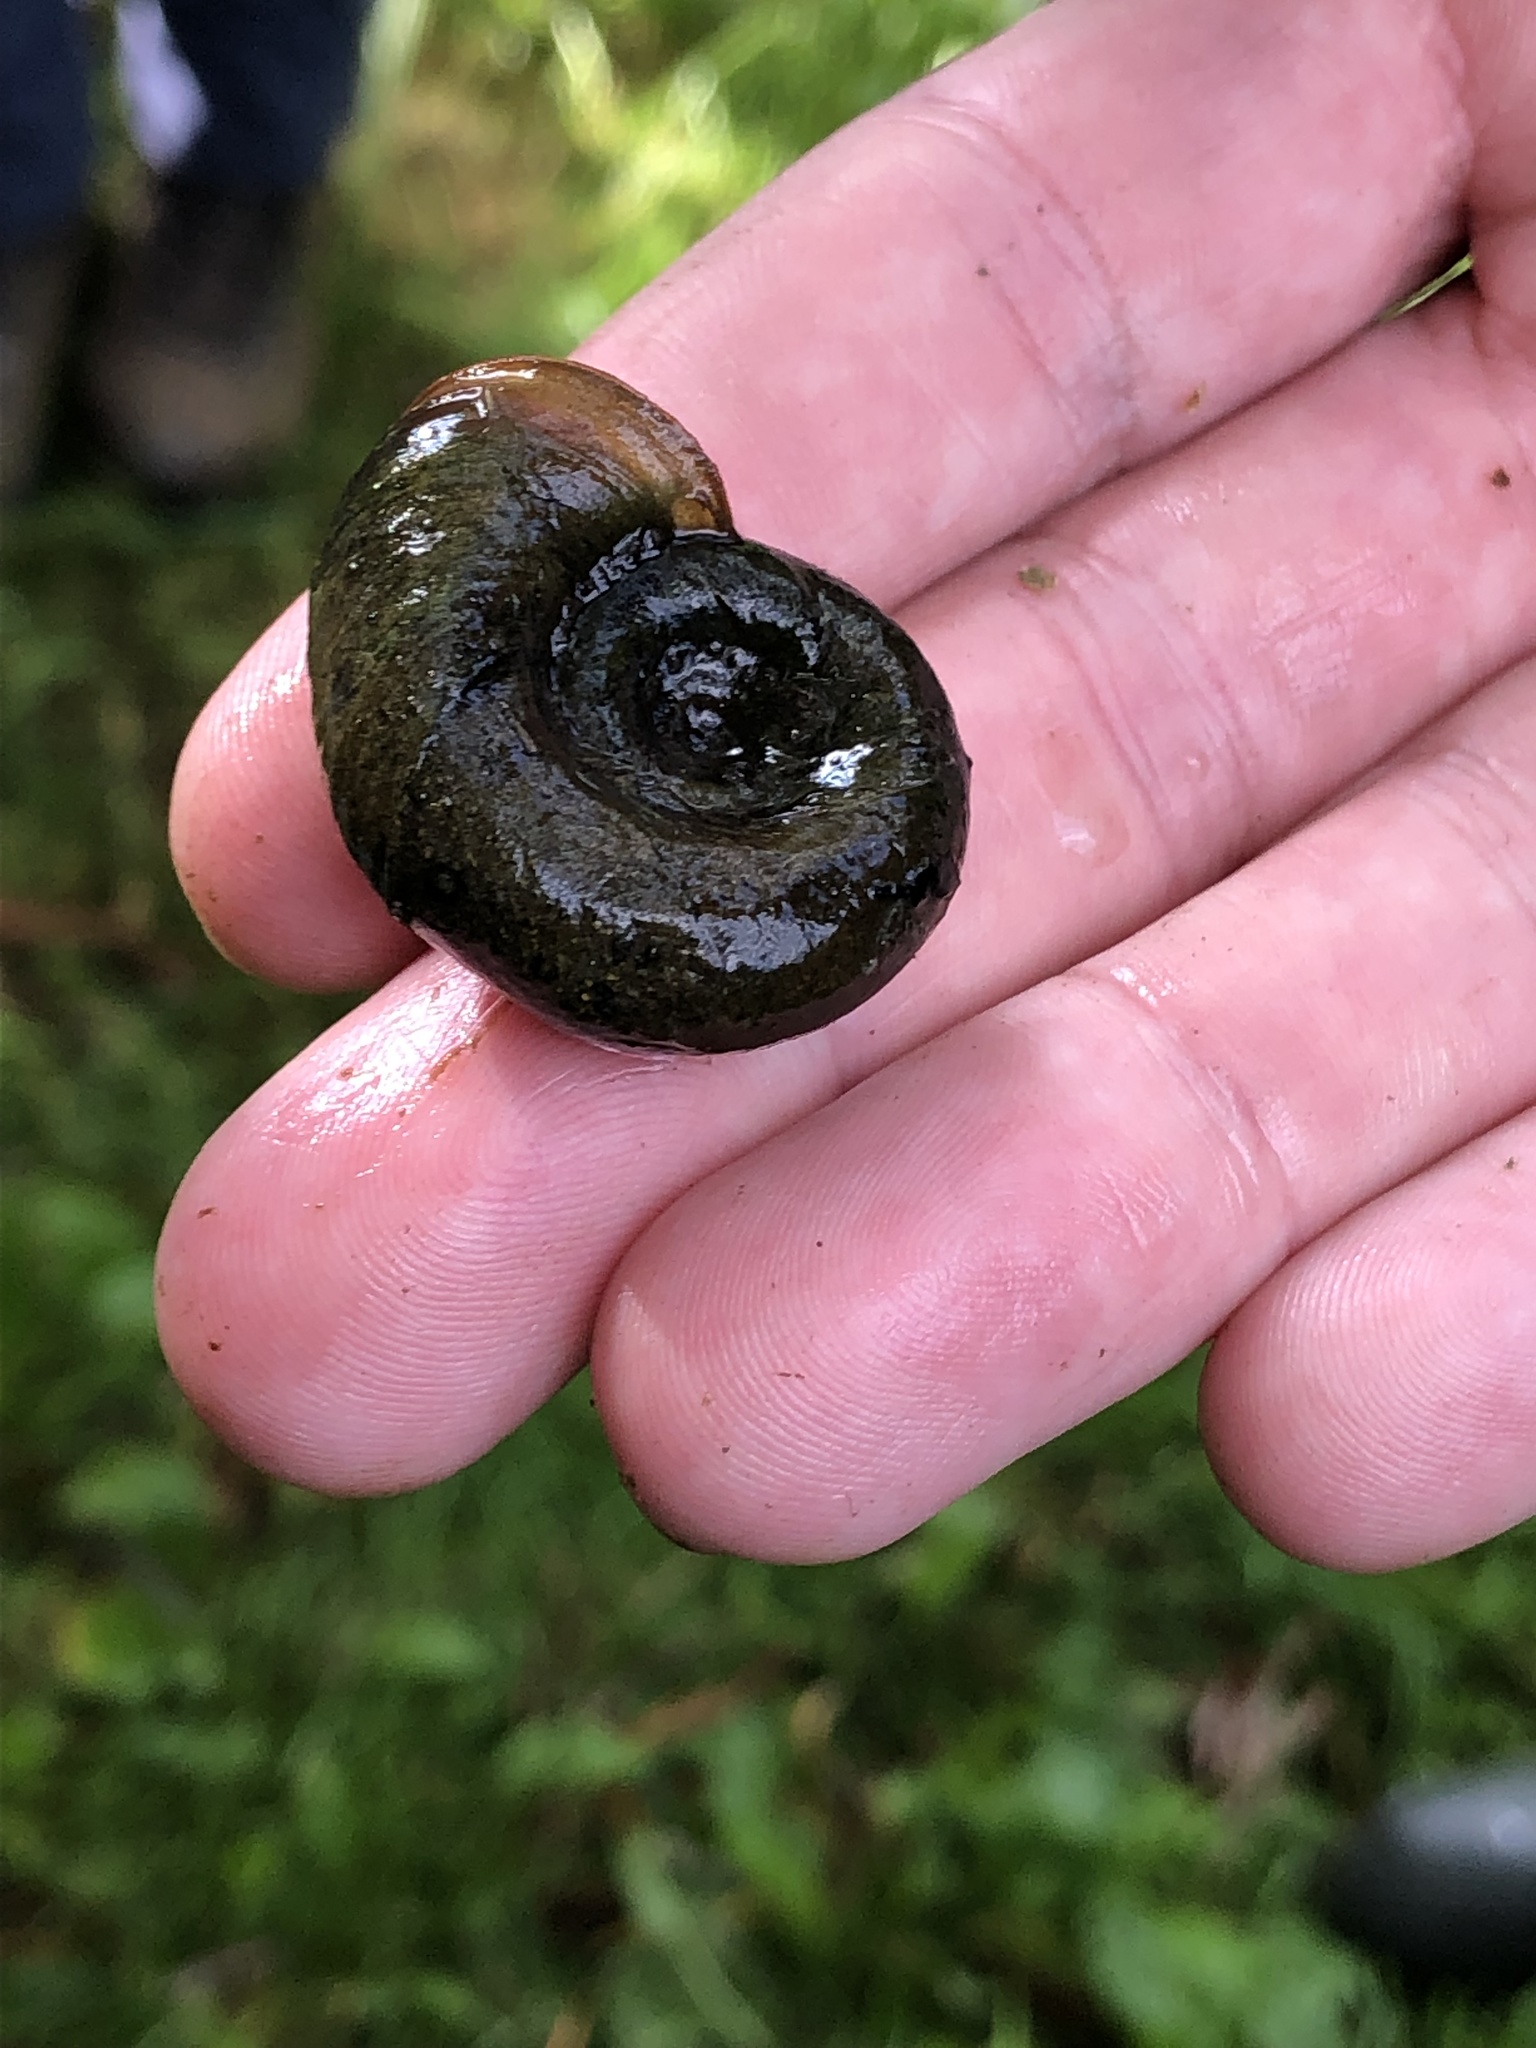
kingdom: Animalia
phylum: Mollusca
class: Gastropoda
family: Planorbidae
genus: Planorbarius
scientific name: Planorbarius corneus
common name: Great ramshorn
